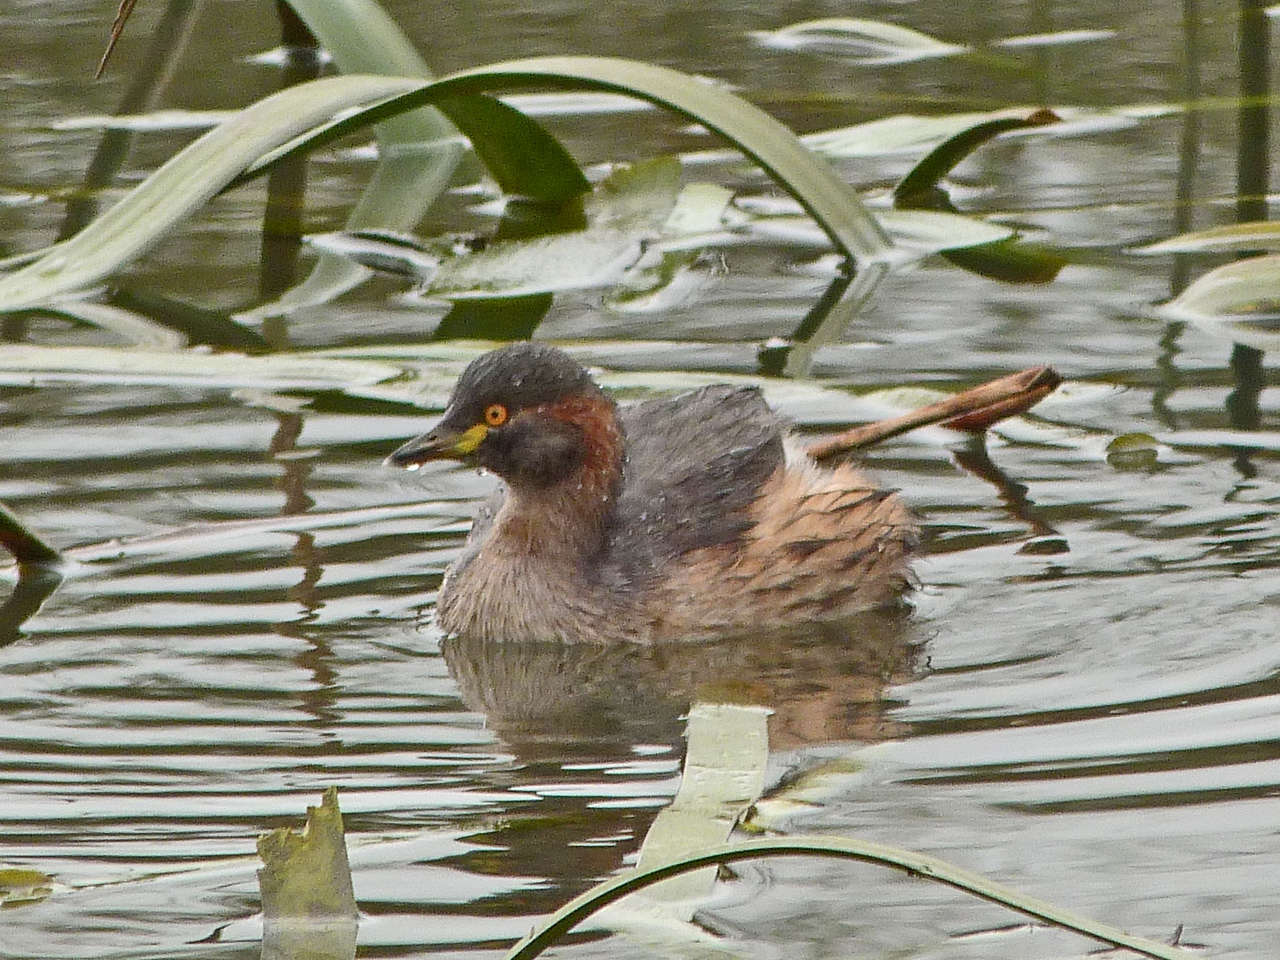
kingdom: Animalia
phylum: Chordata
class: Aves
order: Podicipediformes
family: Podicipedidae
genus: Tachybaptus
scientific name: Tachybaptus novaehollandiae
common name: Australasian grebe
